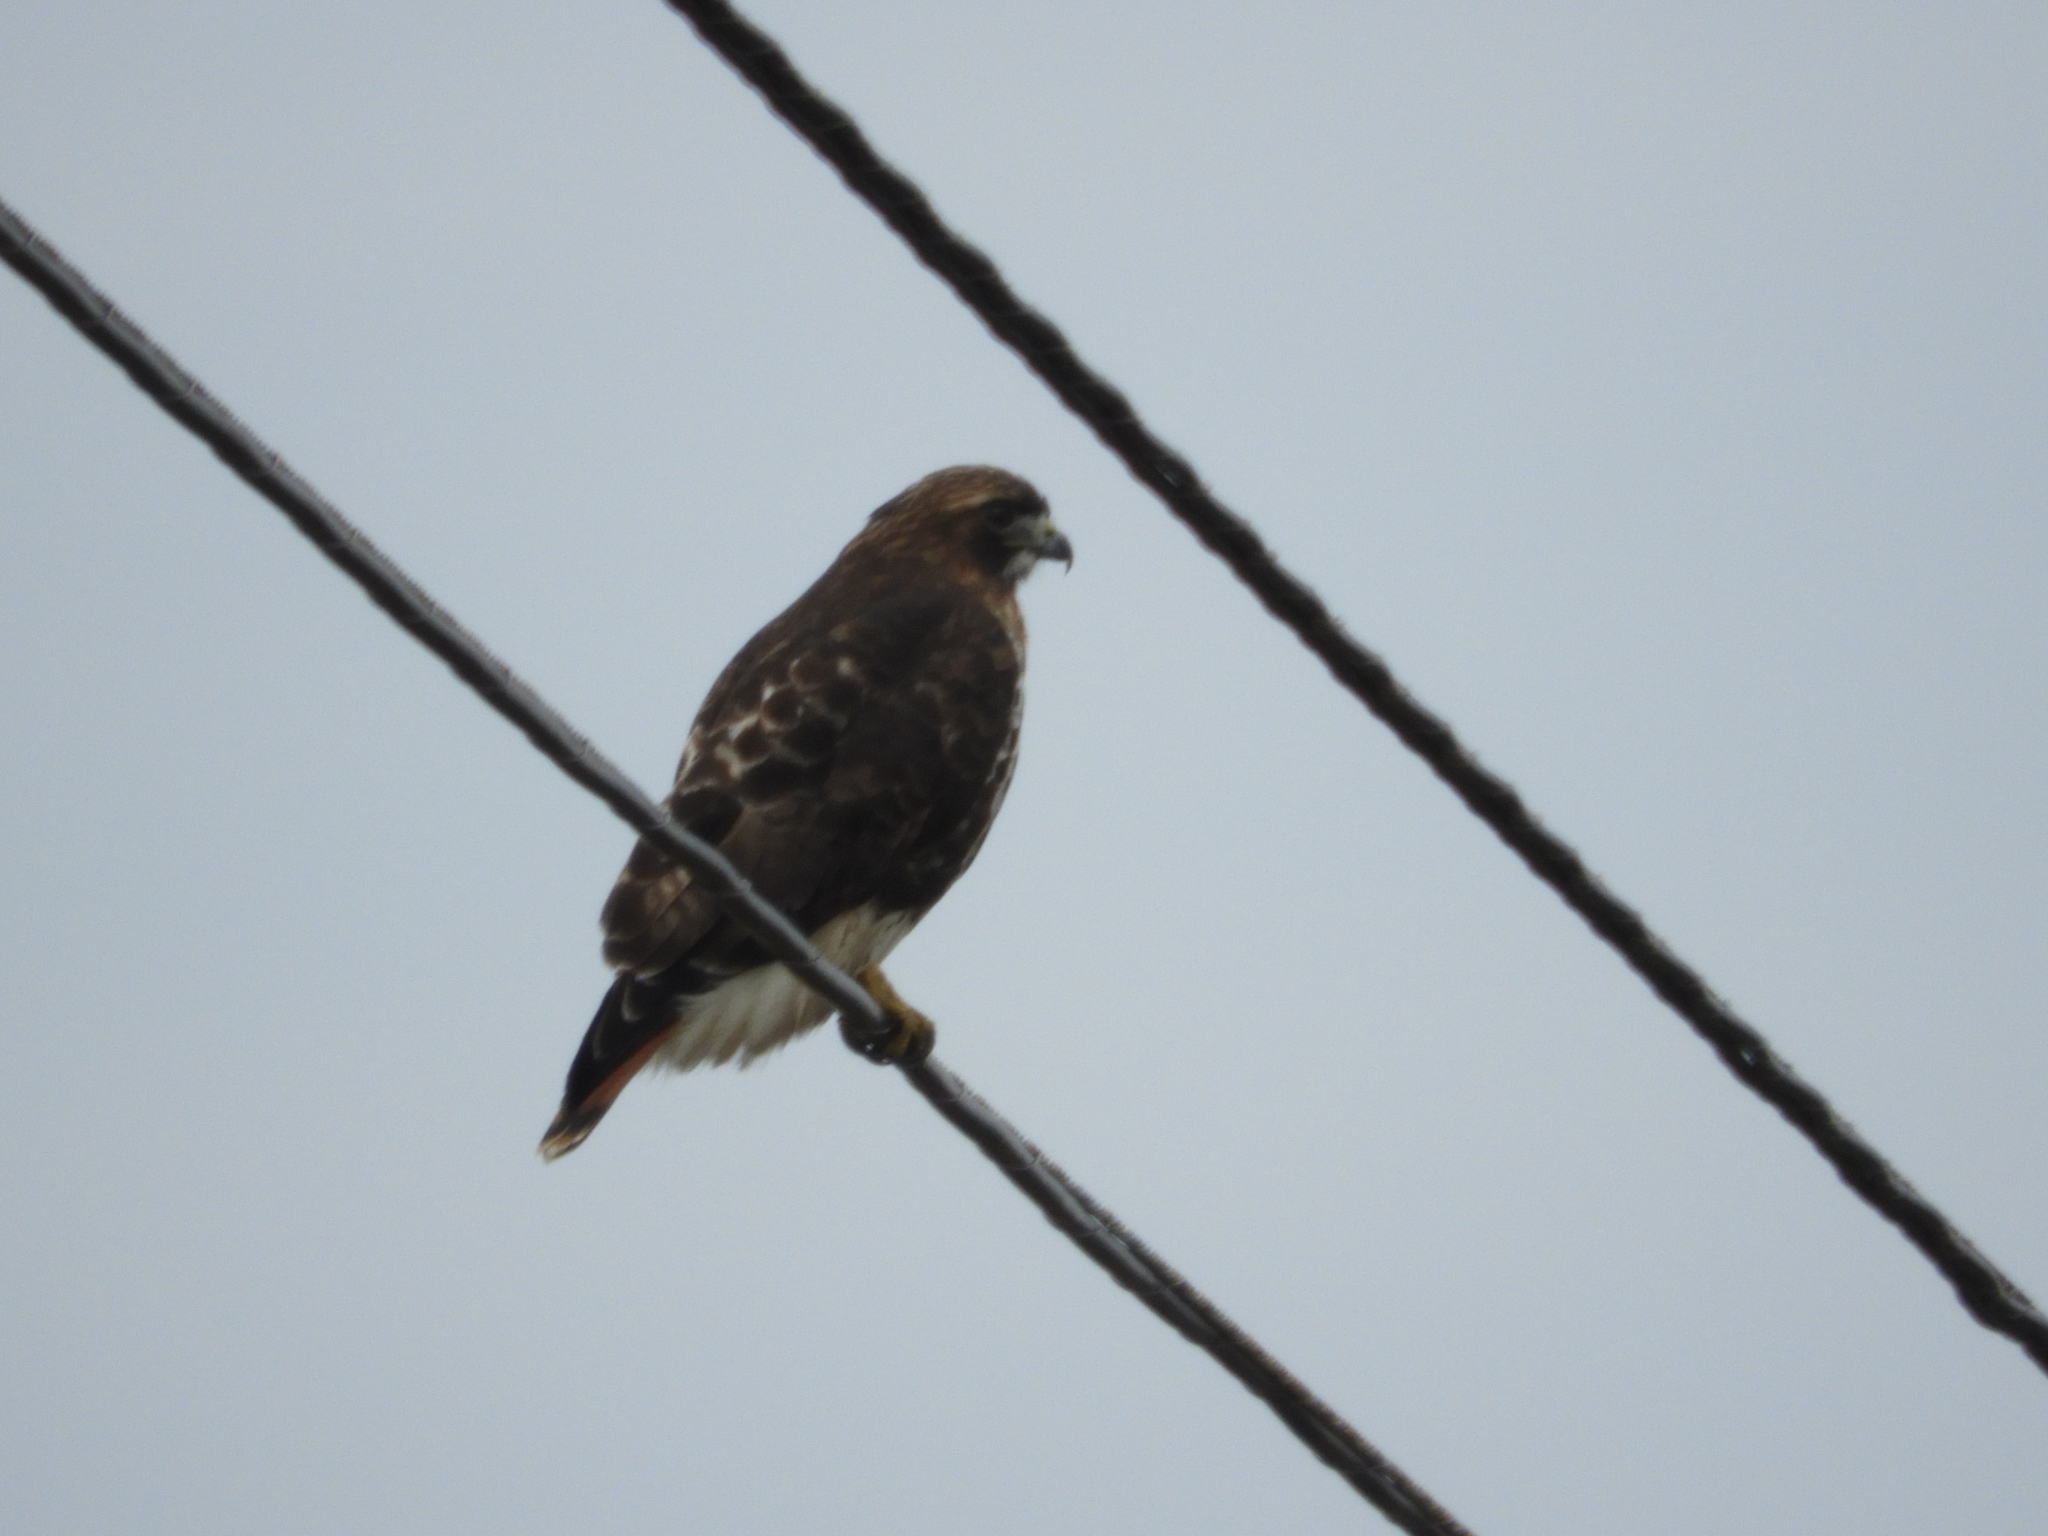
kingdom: Animalia
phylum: Chordata
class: Aves
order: Accipitriformes
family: Accipitridae
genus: Buteo
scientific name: Buteo jamaicensis
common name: Red-tailed hawk
